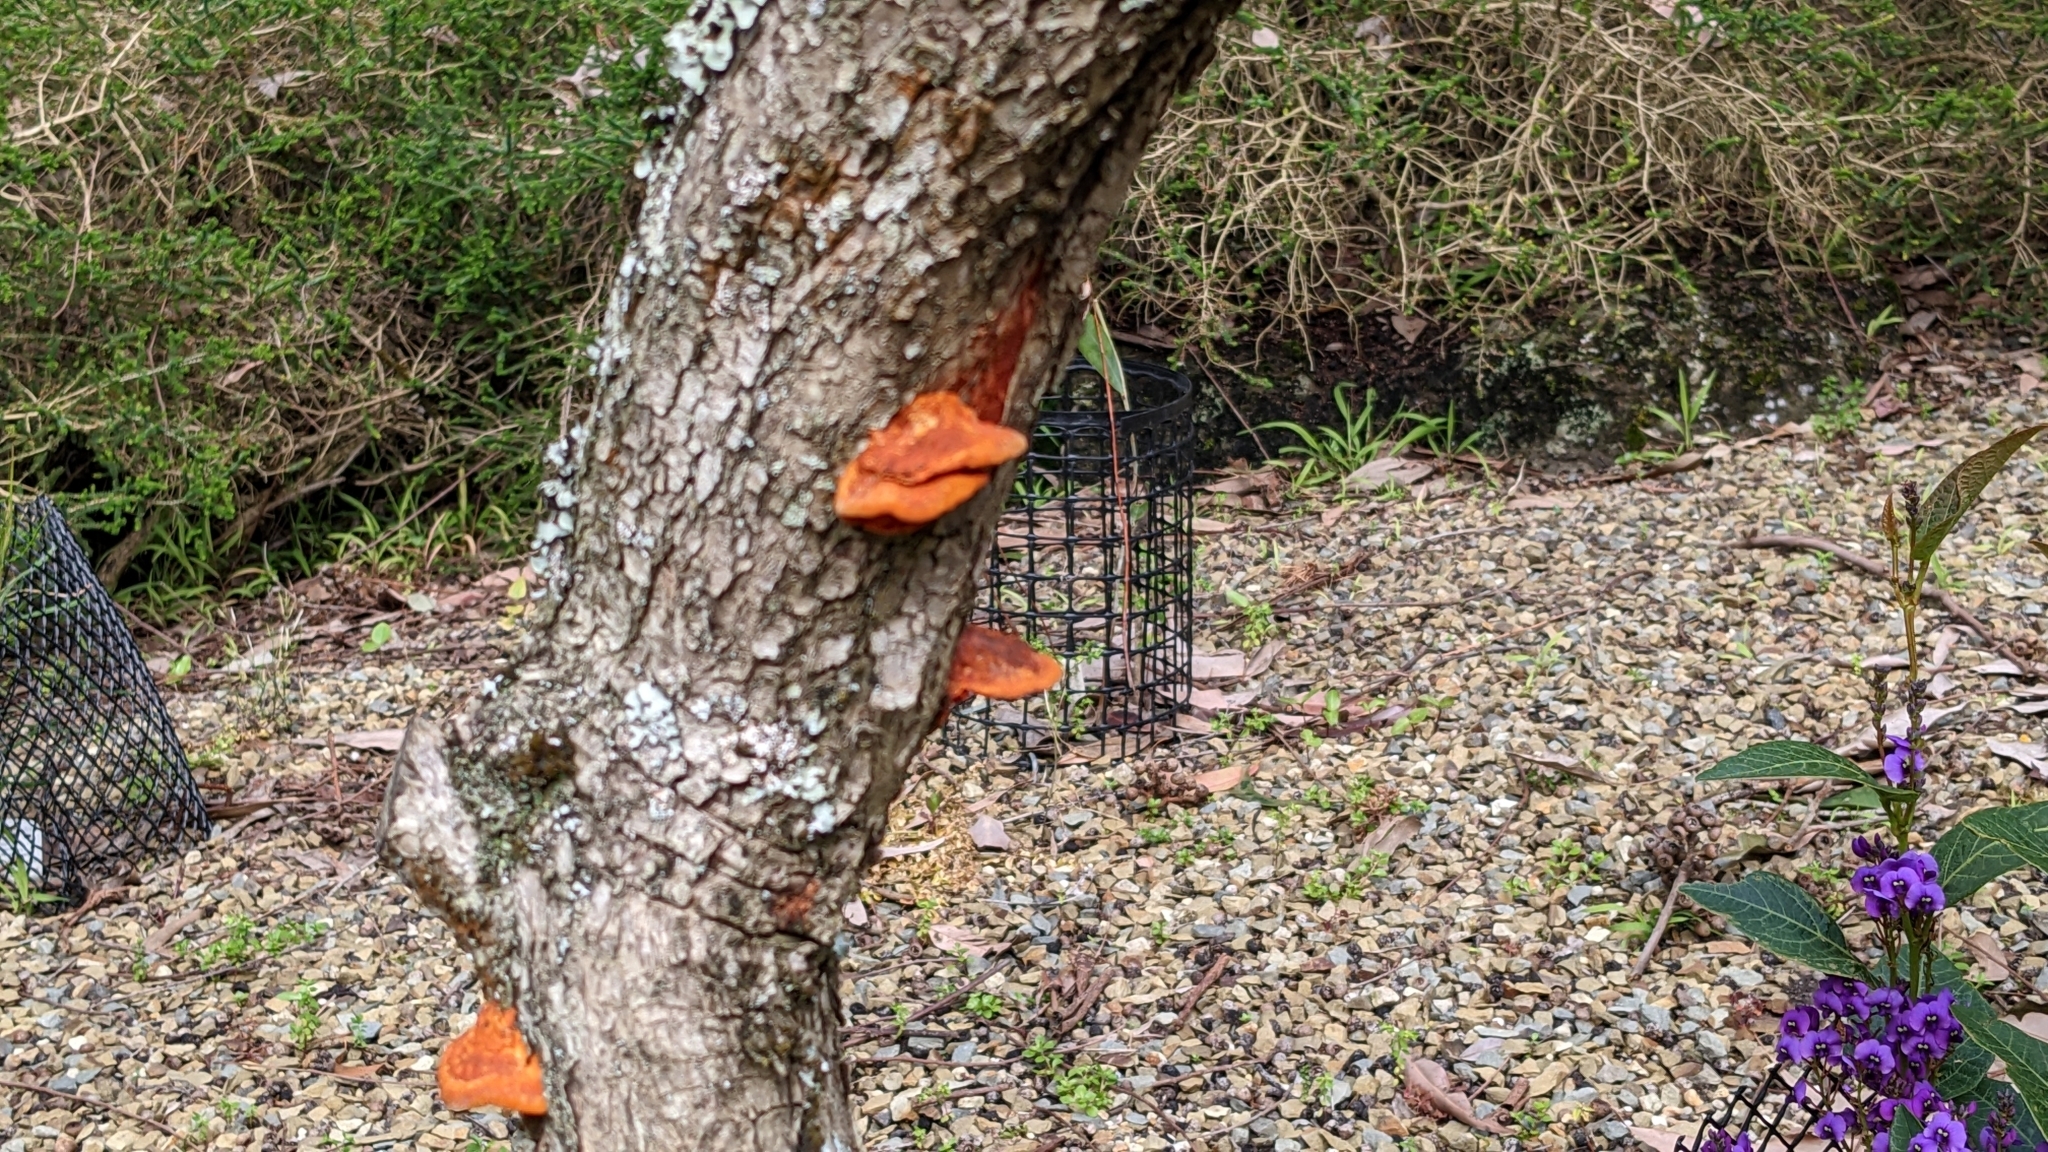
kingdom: Fungi
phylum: Basidiomycota
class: Agaricomycetes
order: Polyporales
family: Polyporaceae
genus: Trametes
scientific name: Trametes coccinea
